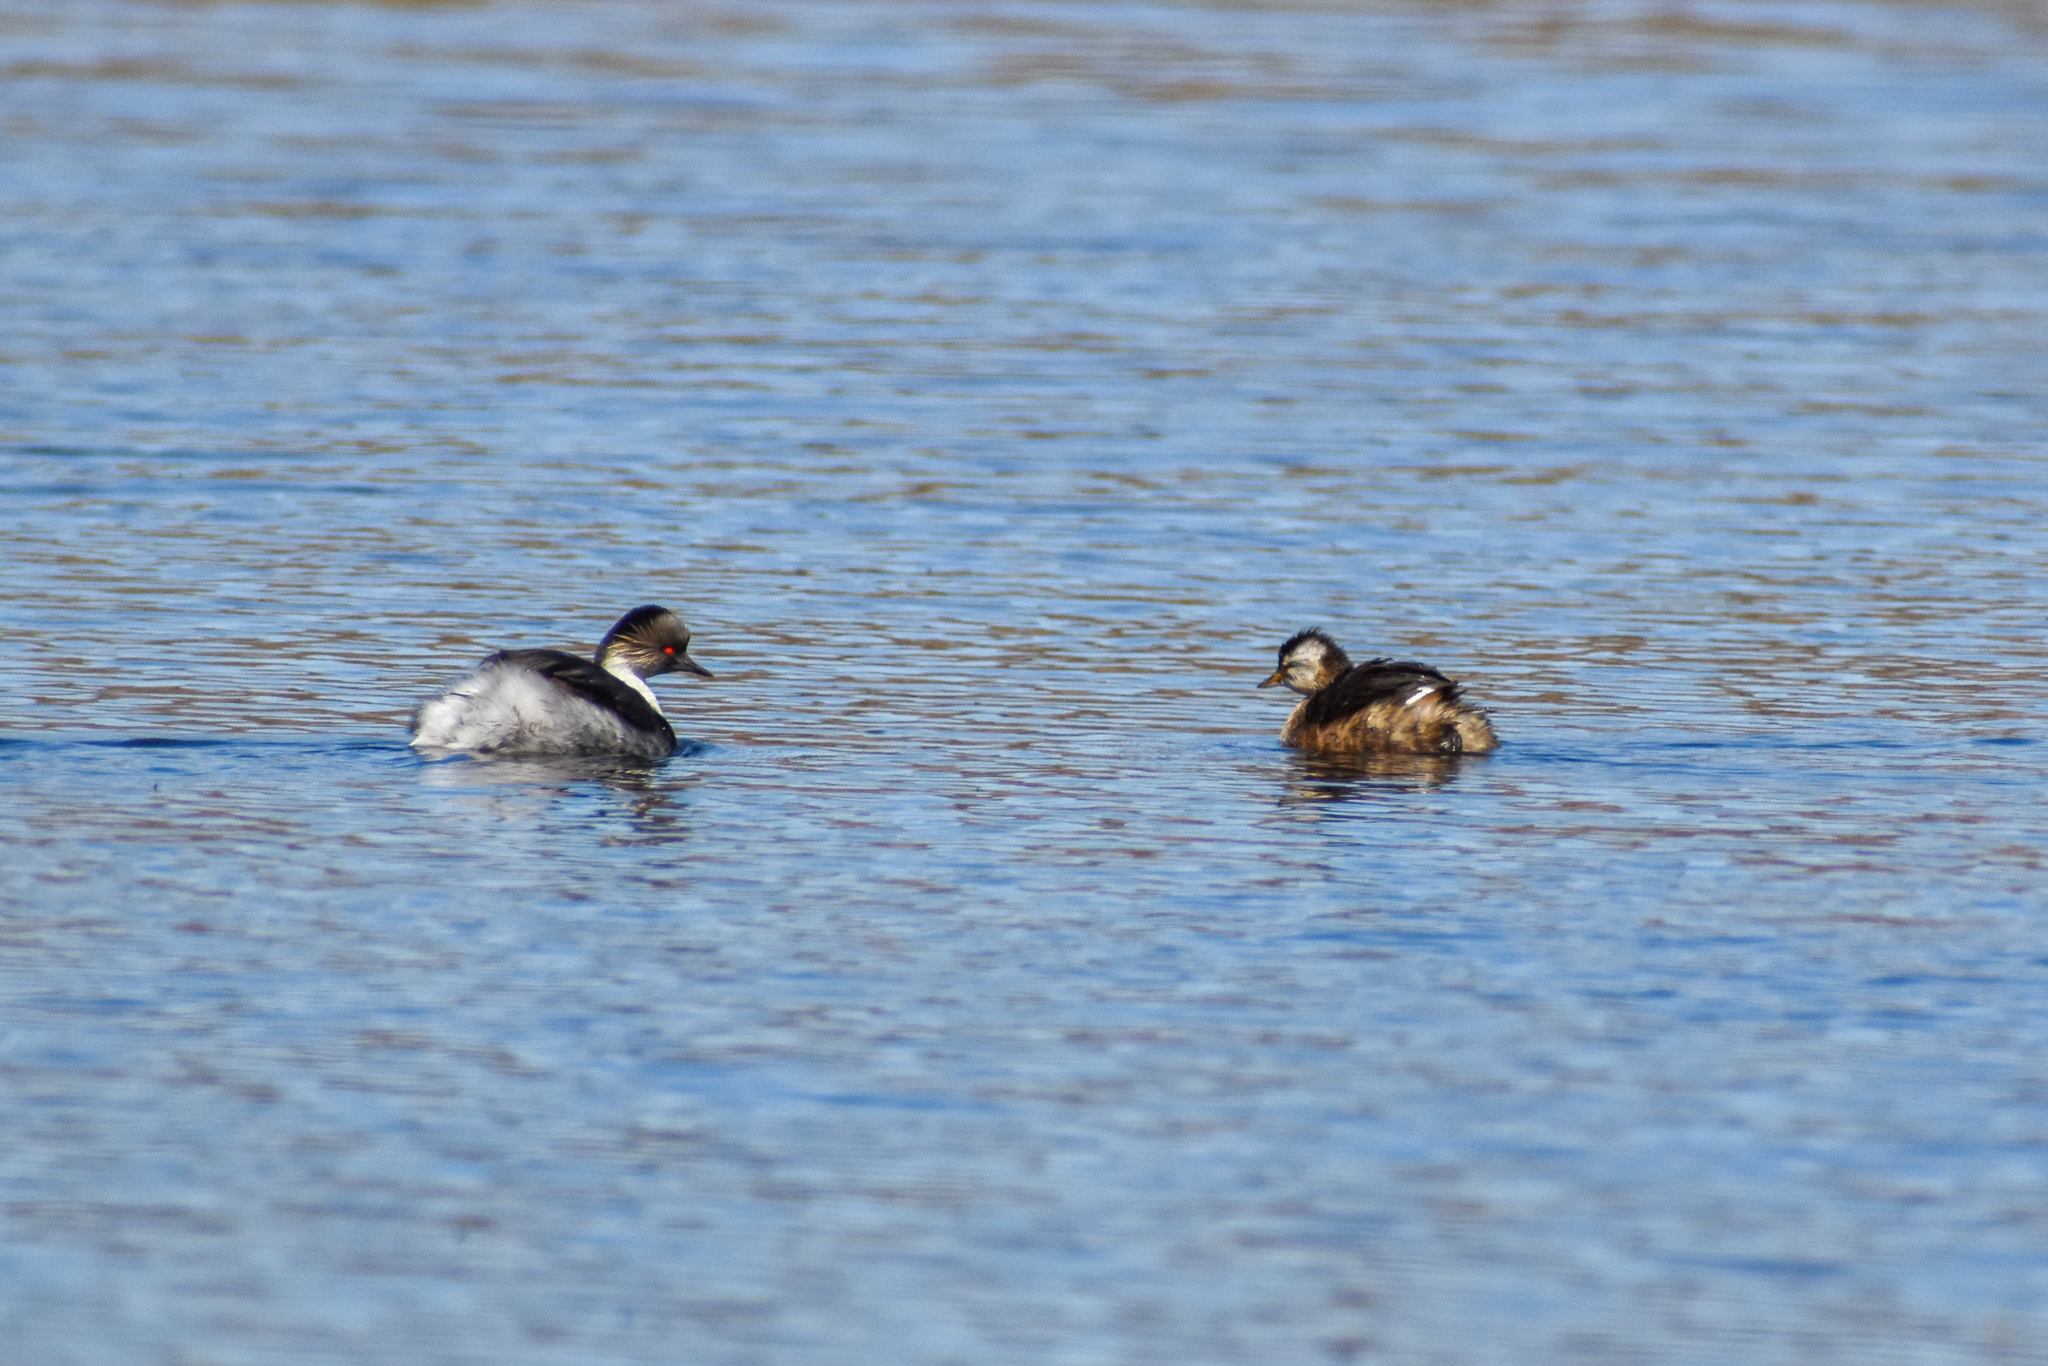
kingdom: Animalia
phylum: Chordata
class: Aves
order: Podicipediformes
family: Podicipedidae
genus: Podiceps
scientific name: Podiceps occipitalis
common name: Silvery grebe
